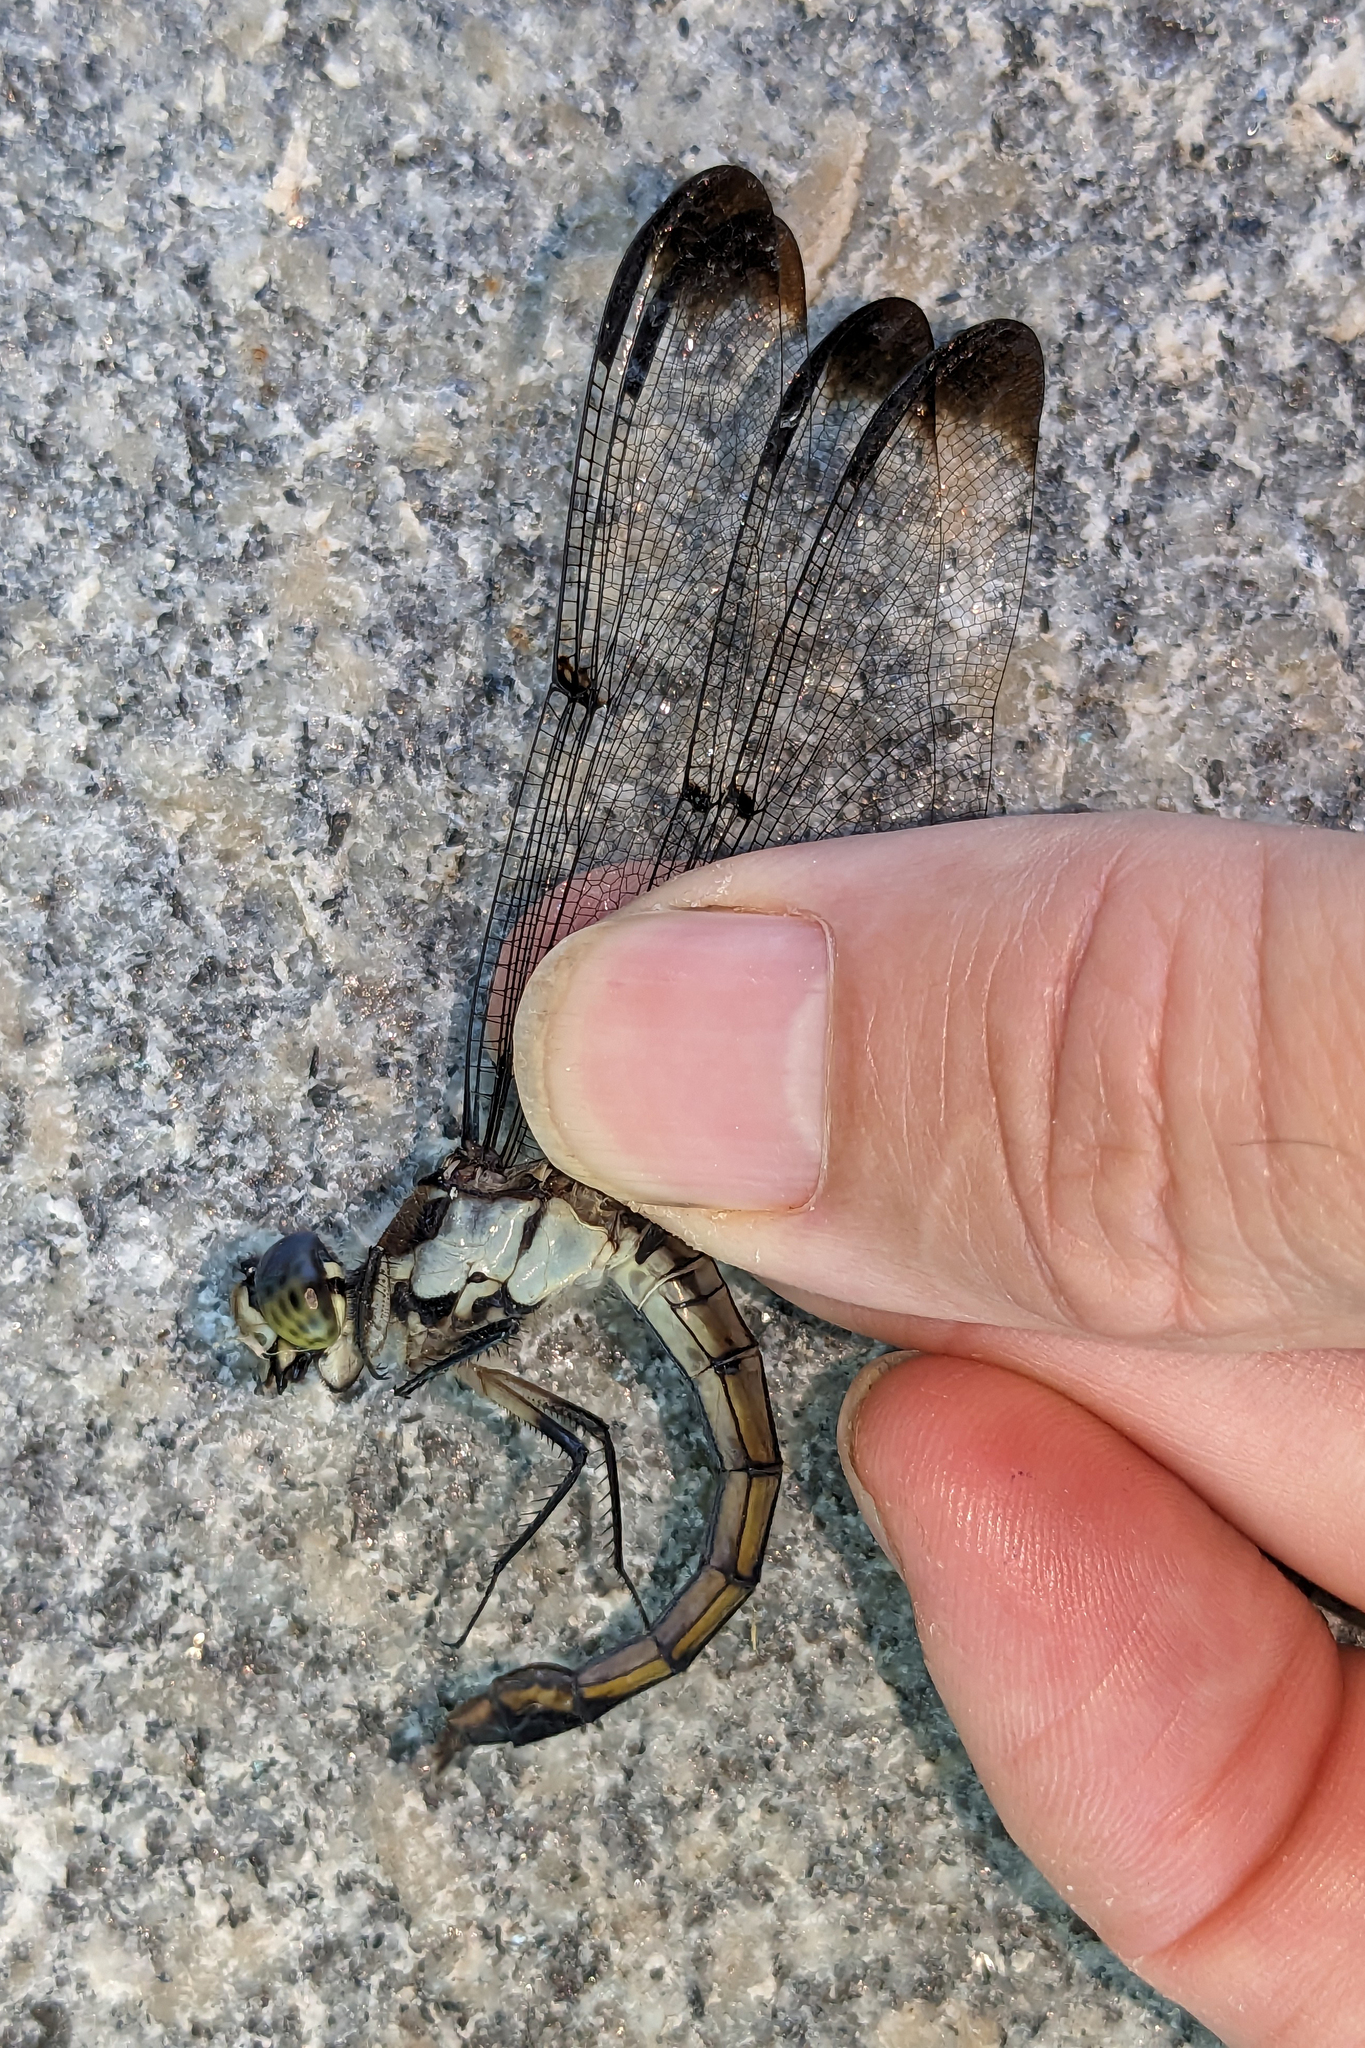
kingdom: Animalia
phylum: Arthropoda
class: Insecta
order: Odonata
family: Libellulidae
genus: Libellula
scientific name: Libellula vibrans
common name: Great blue skimmer
